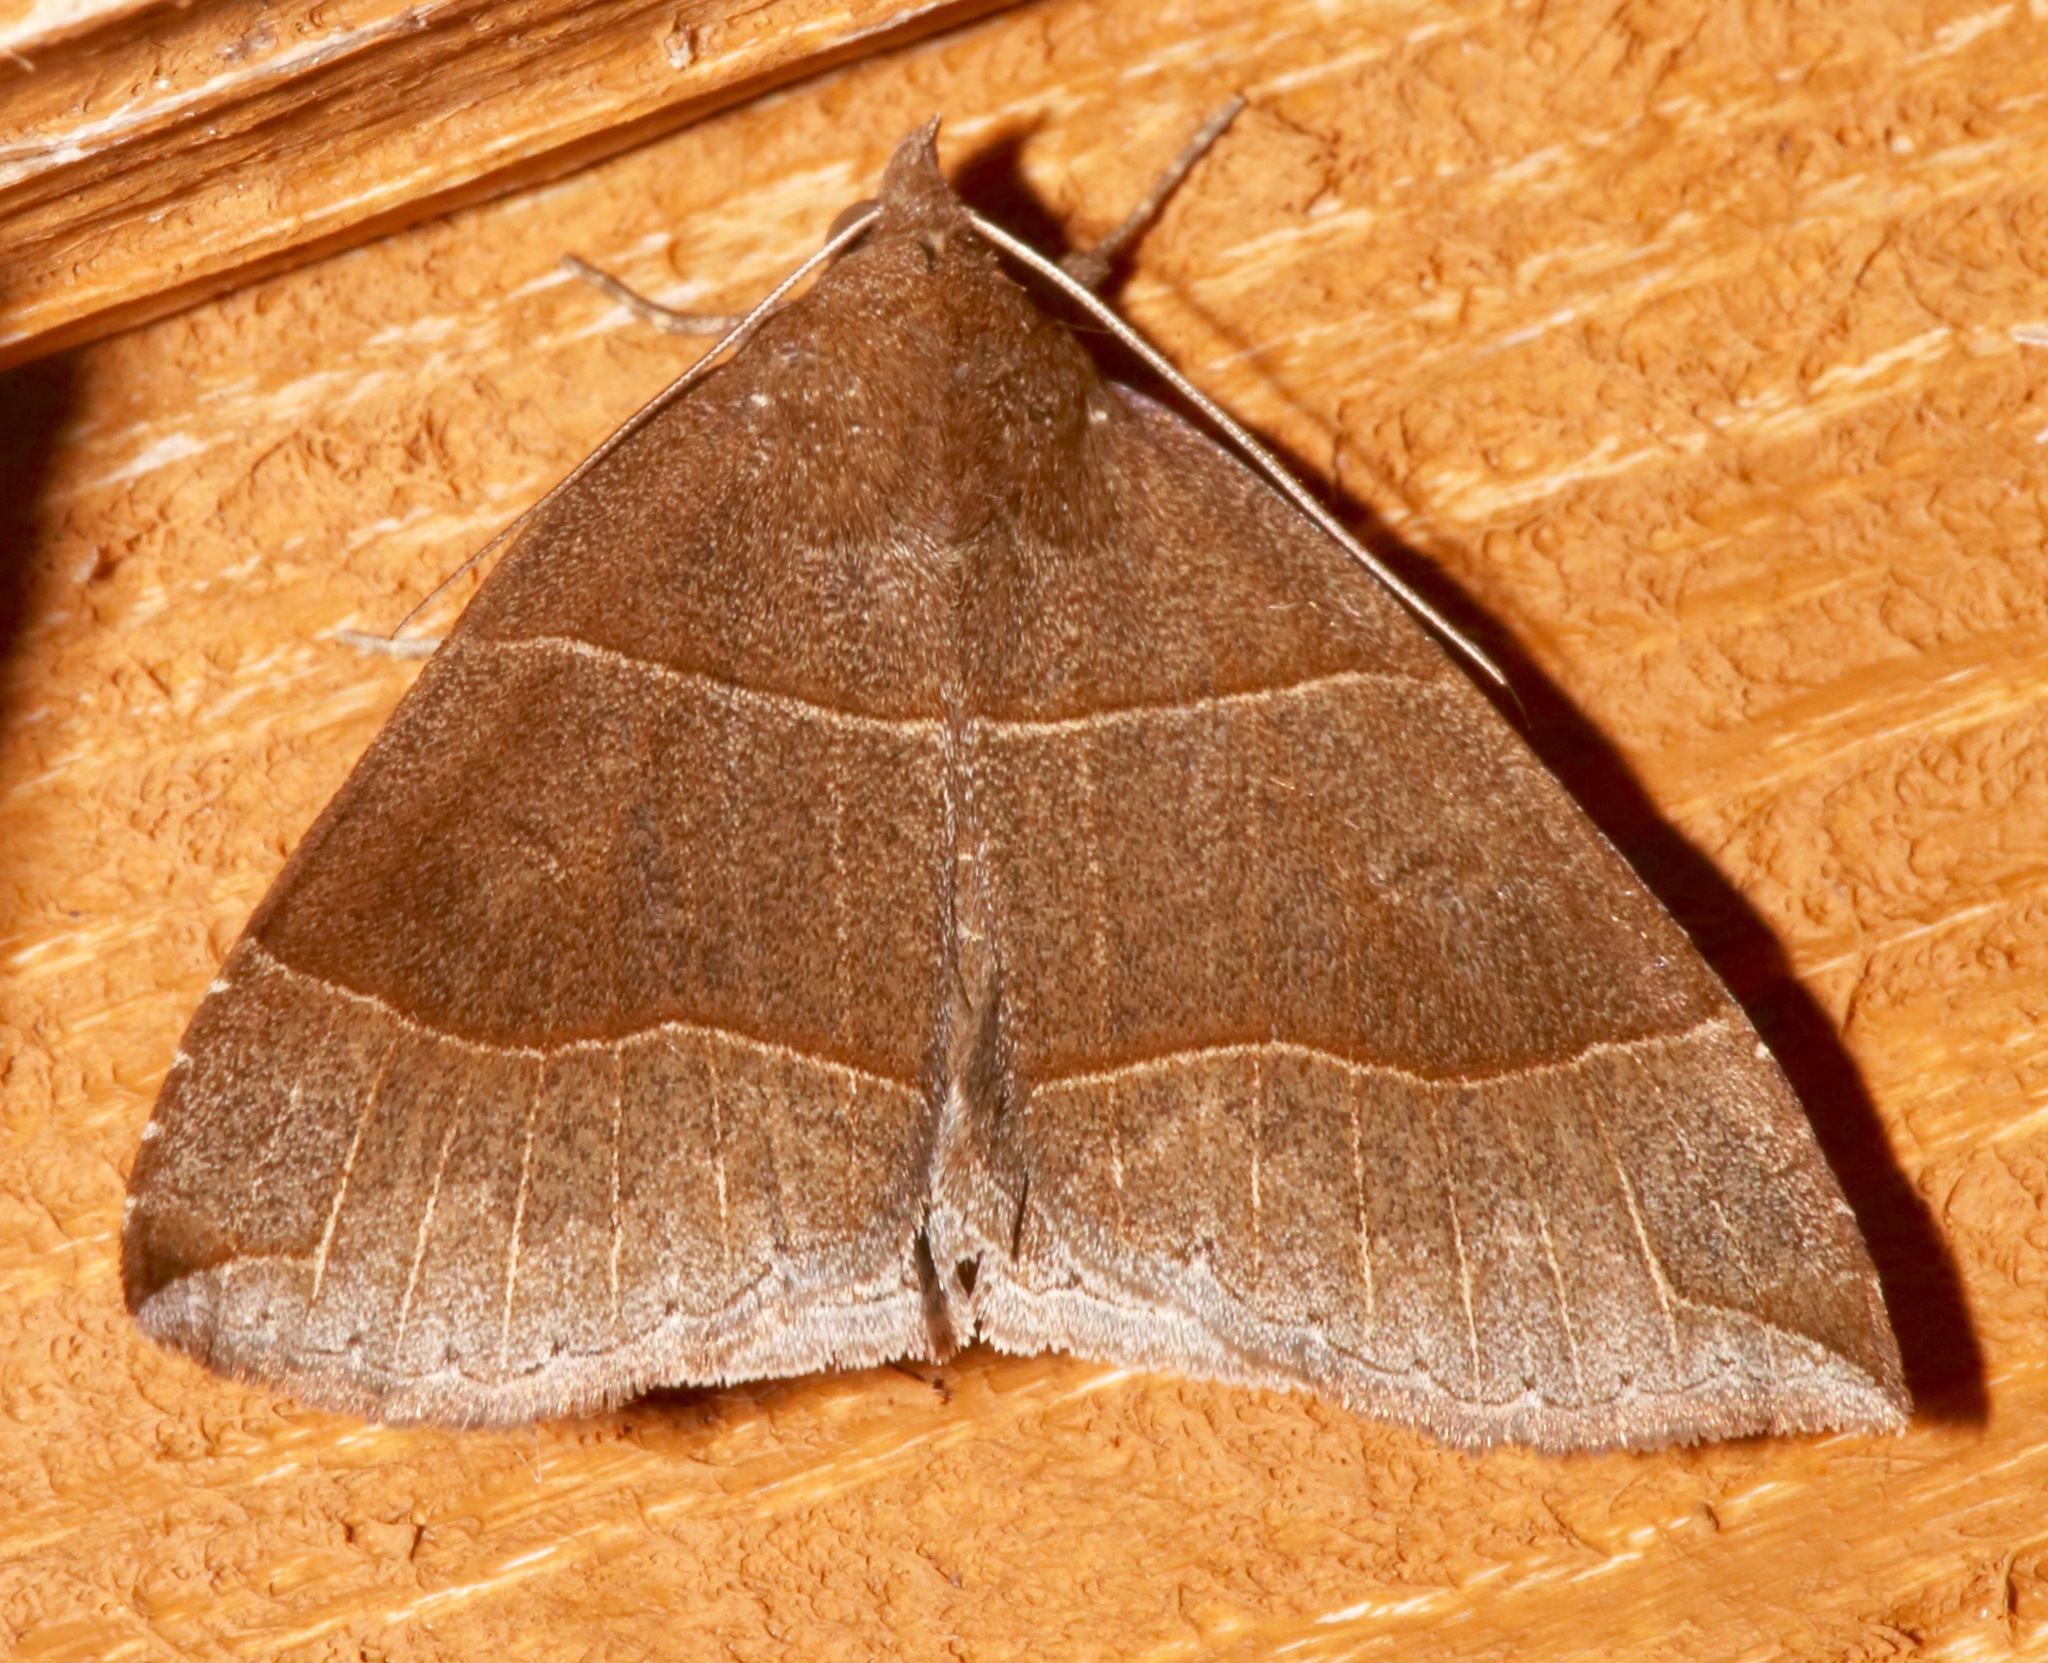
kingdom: Animalia
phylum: Arthropoda
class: Insecta
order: Lepidoptera
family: Erebidae
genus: Parallelia
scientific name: Parallelia bistriaris
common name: Maple looper moth
